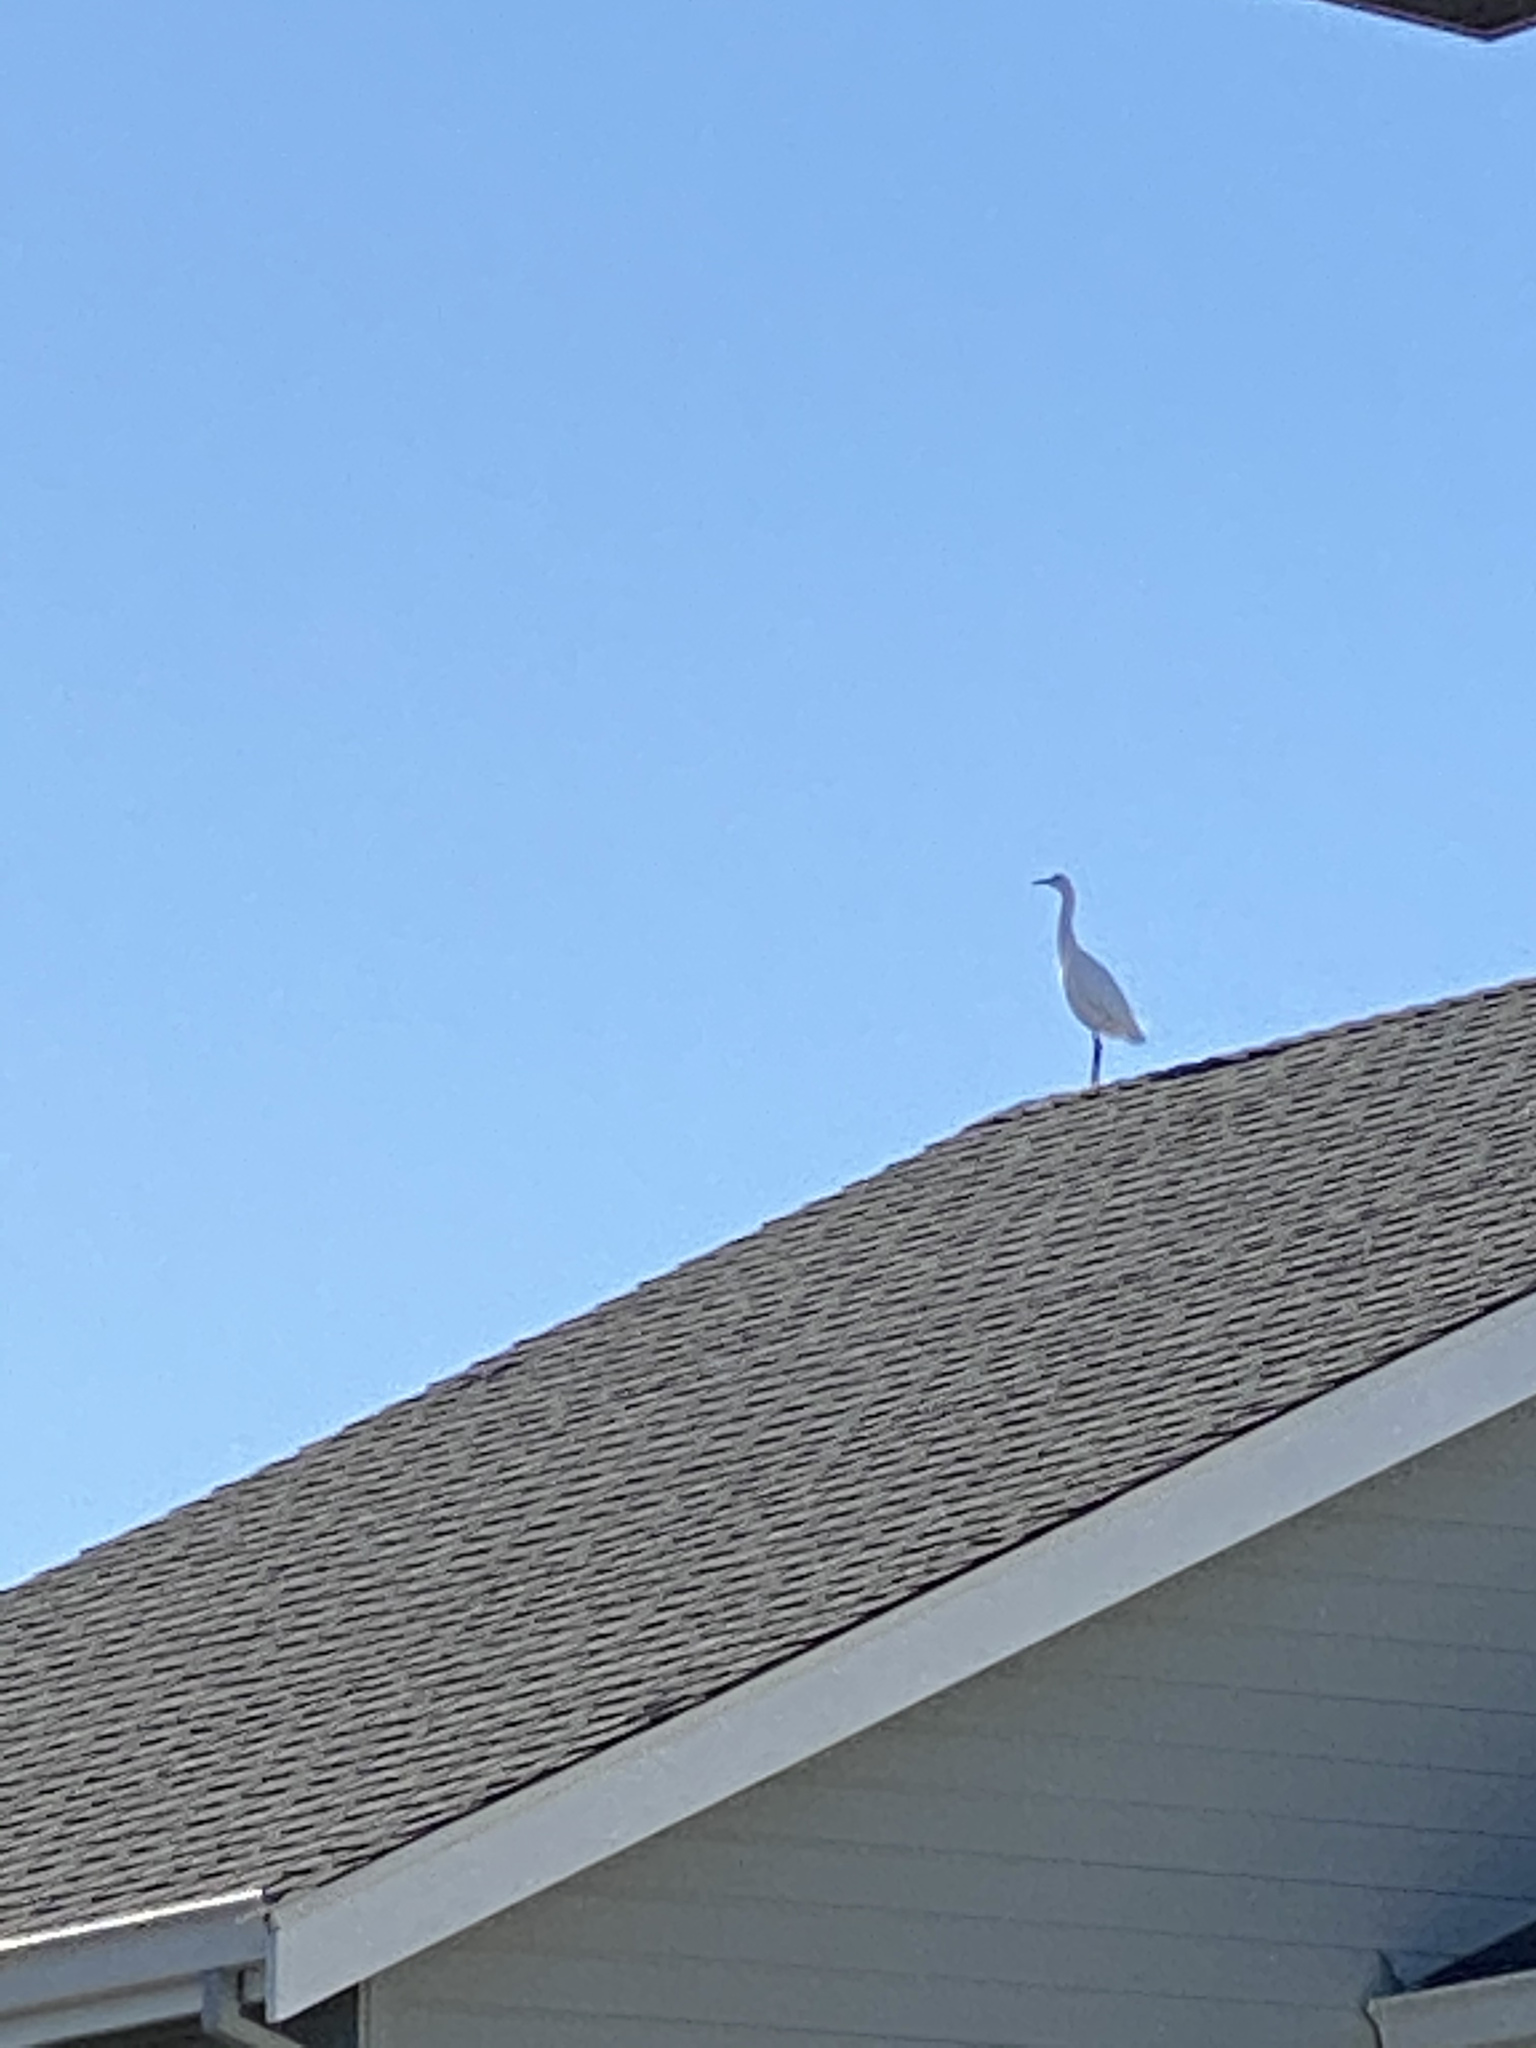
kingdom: Animalia
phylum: Chordata
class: Aves
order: Pelecaniformes
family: Ardeidae
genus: Egretta
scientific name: Egretta thula
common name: Snowy egret
